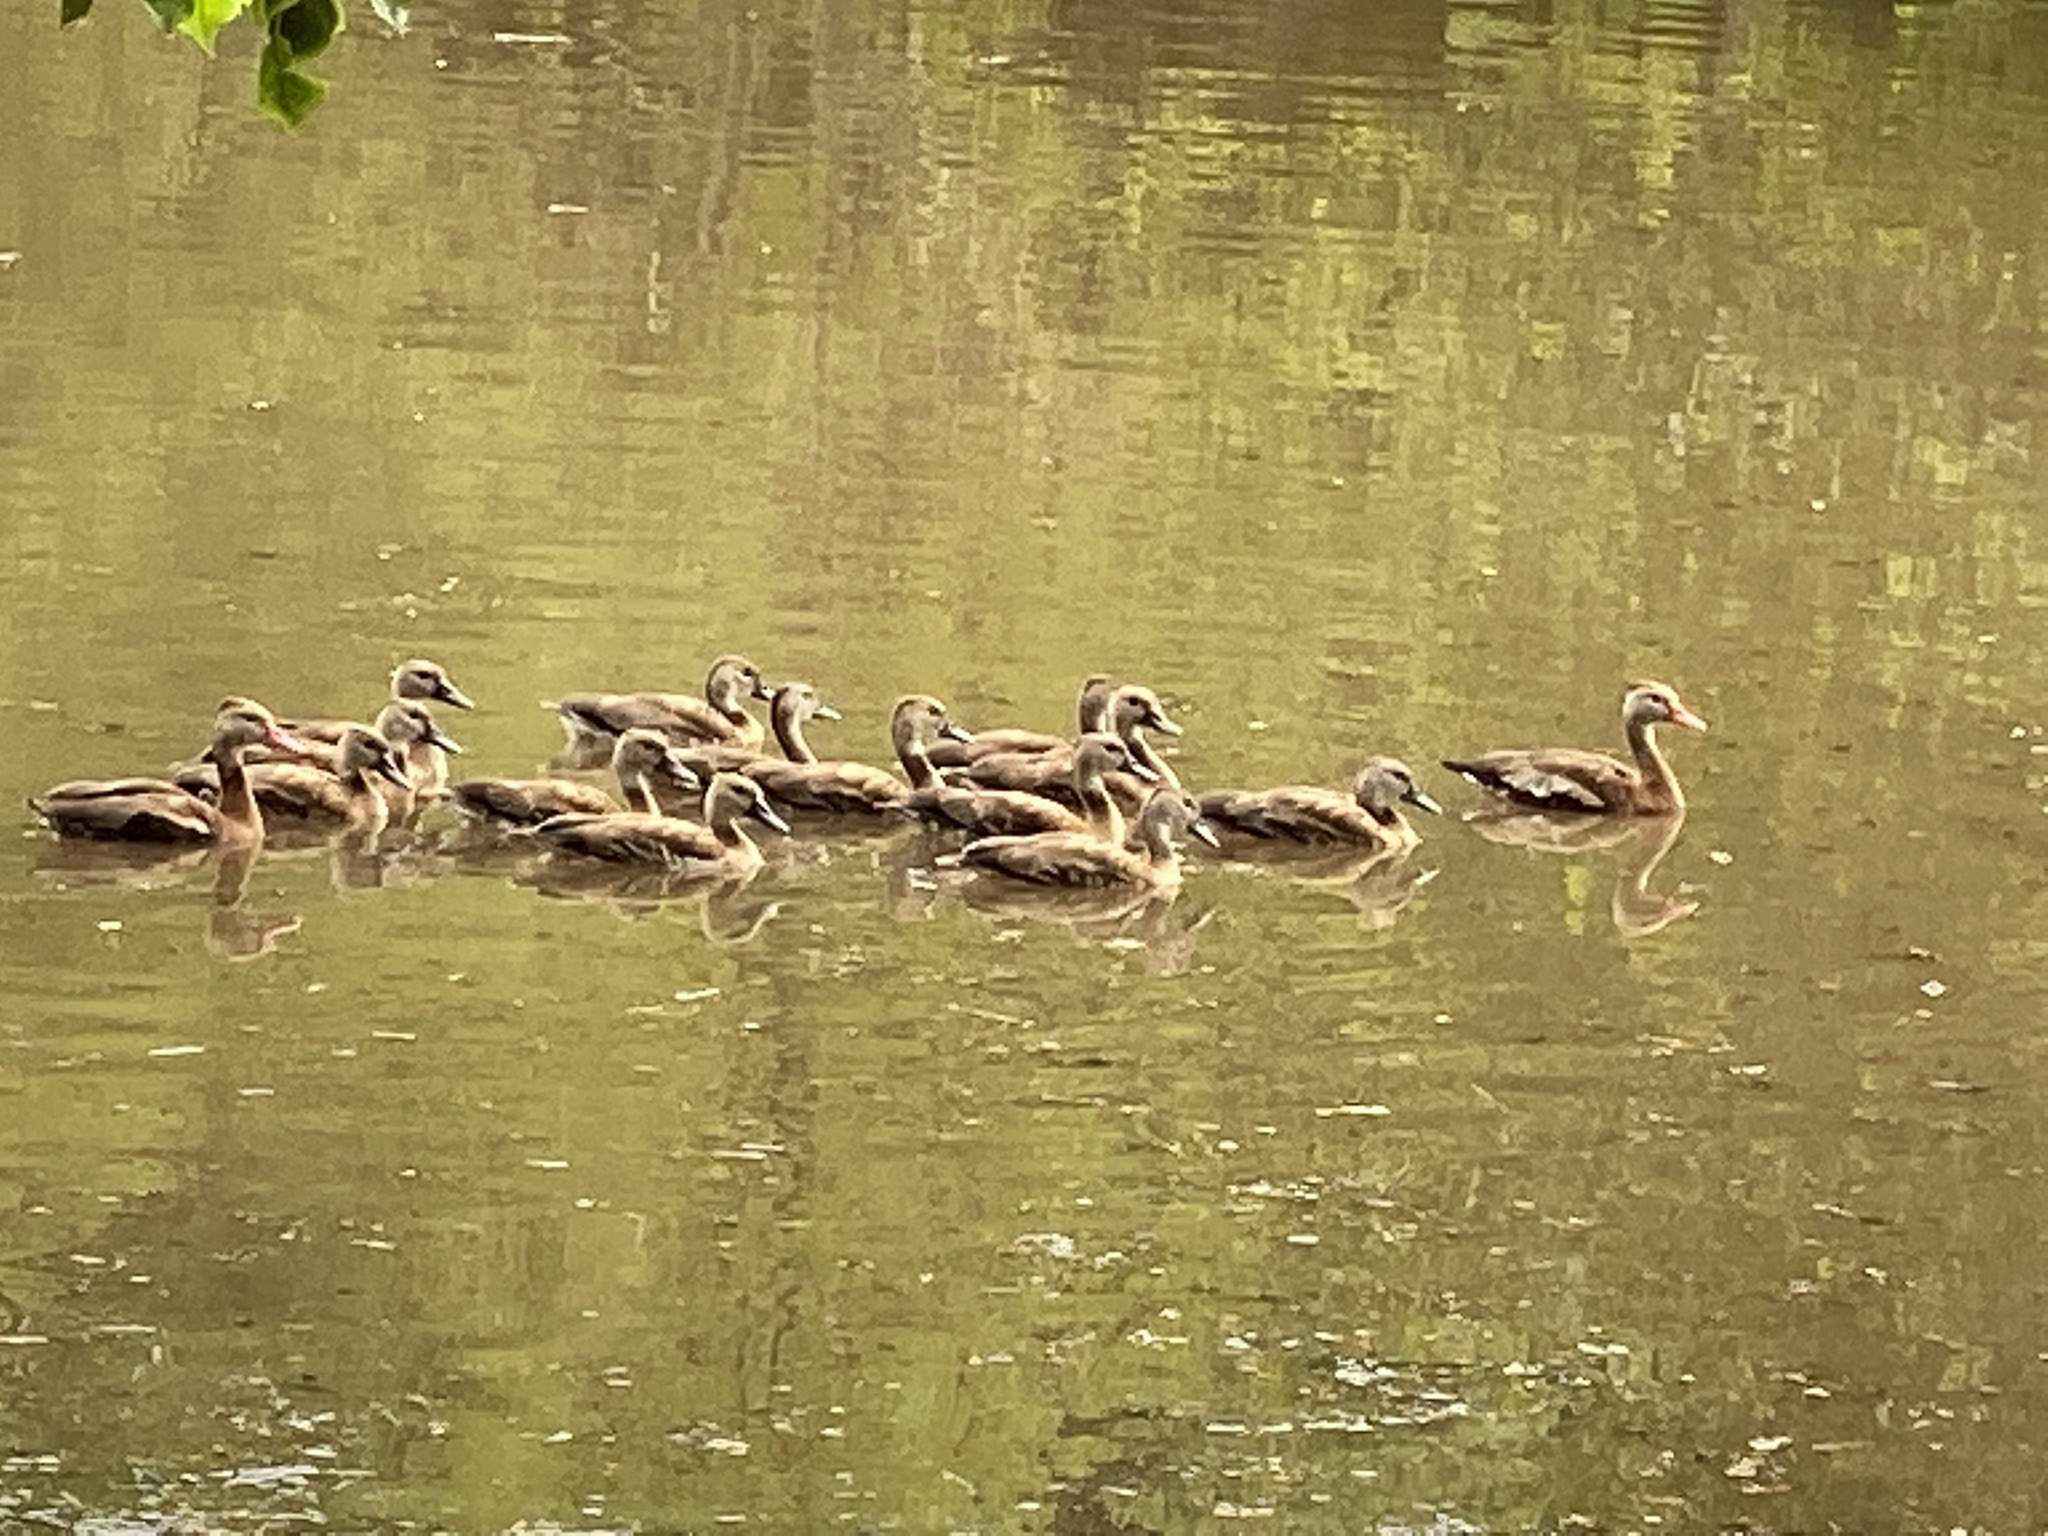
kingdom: Animalia
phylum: Chordata
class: Aves
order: Anseriformes
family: Anatidae
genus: Dendrocygna
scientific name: Dendrocygna autumnalis
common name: Black-bellied whistling duck
